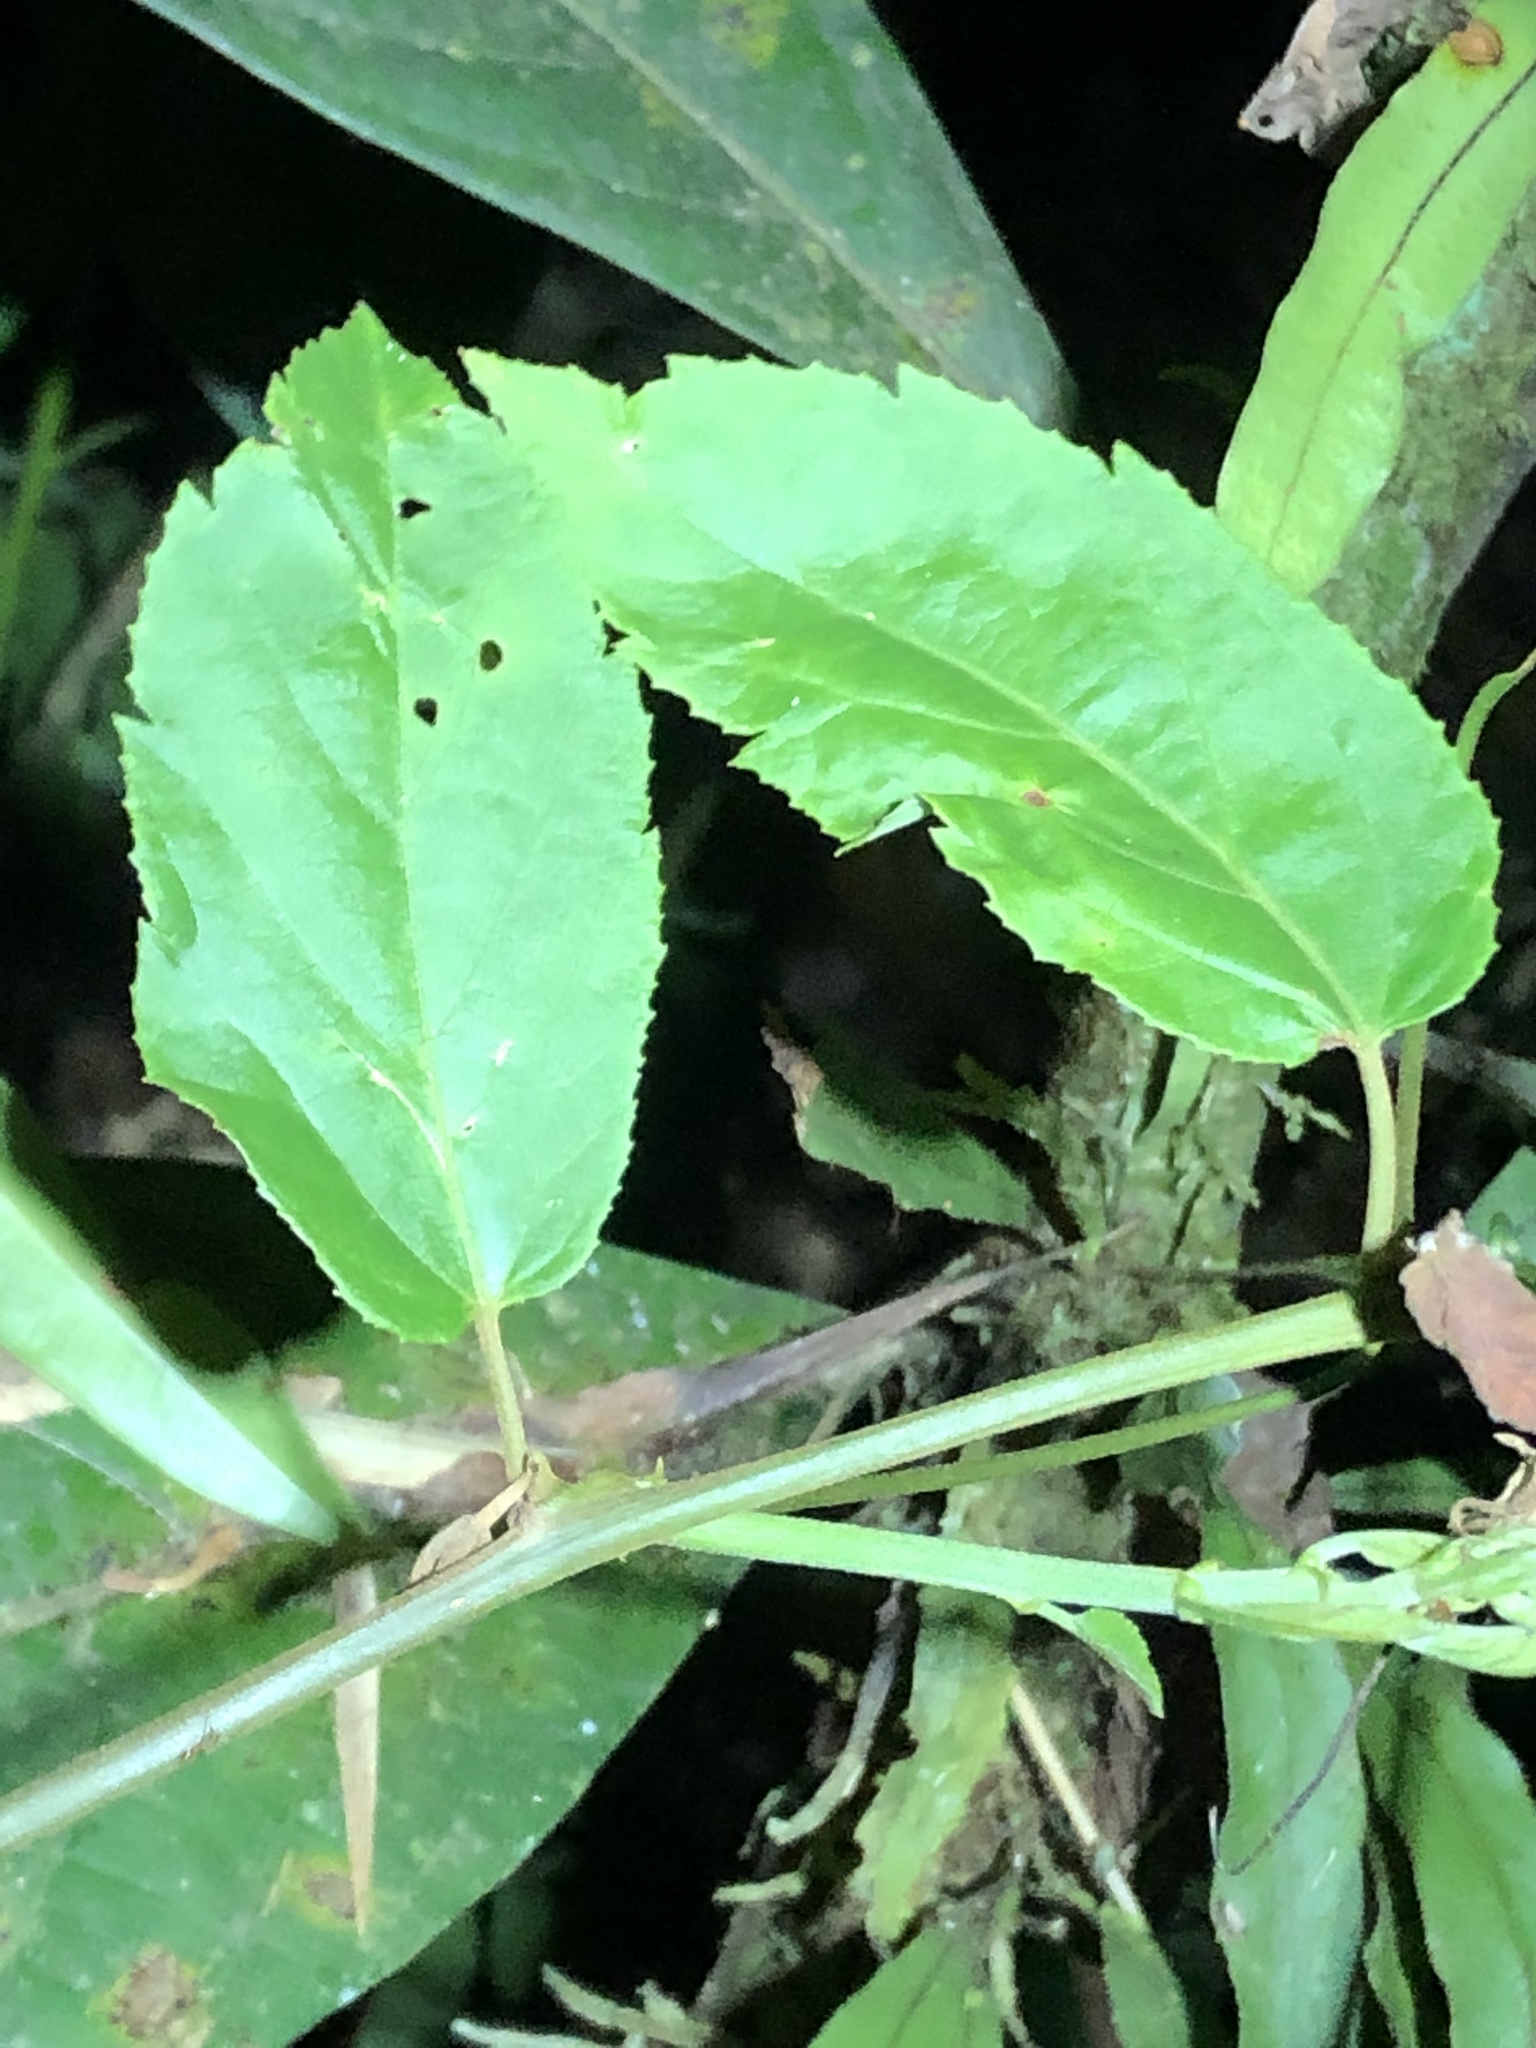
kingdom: Plantae
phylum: Tracheophyta
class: Magnoliopsida
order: Malpighiales
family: Passifloraceae
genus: Passiflora
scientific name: Passiflora miniata
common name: Red granadilla
